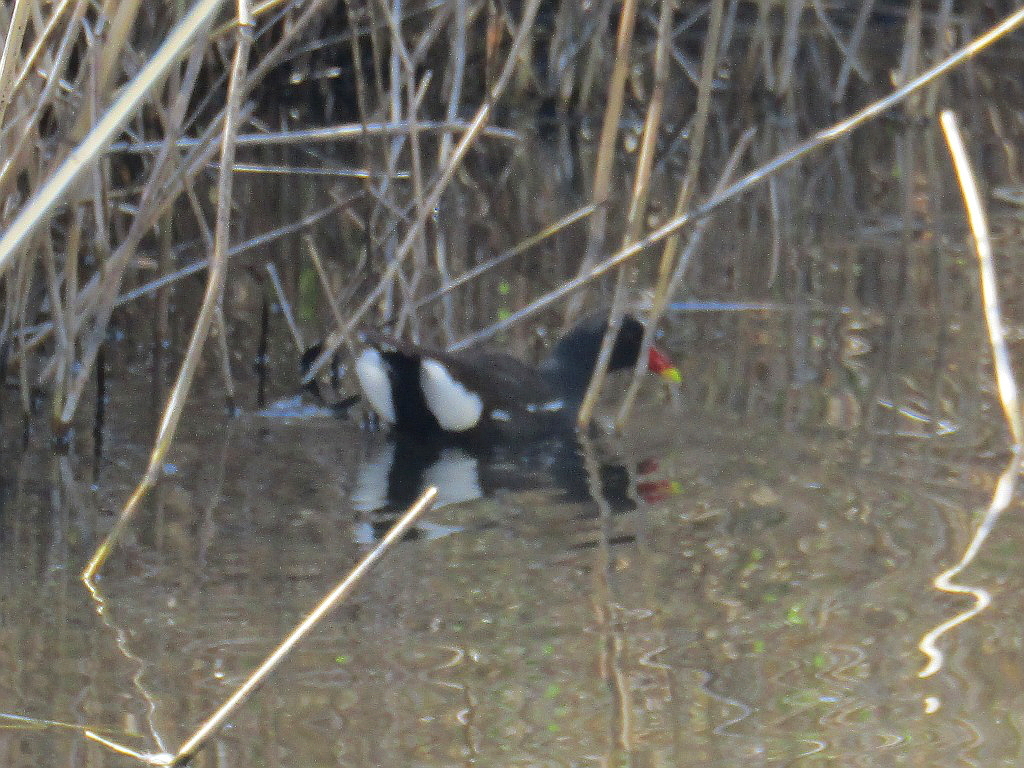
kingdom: Animalia
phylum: Chordata
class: Aves
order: Gruiformes
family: Rallidae
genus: Gallinula
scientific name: Gallinula chloropus
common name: Common moorhen
